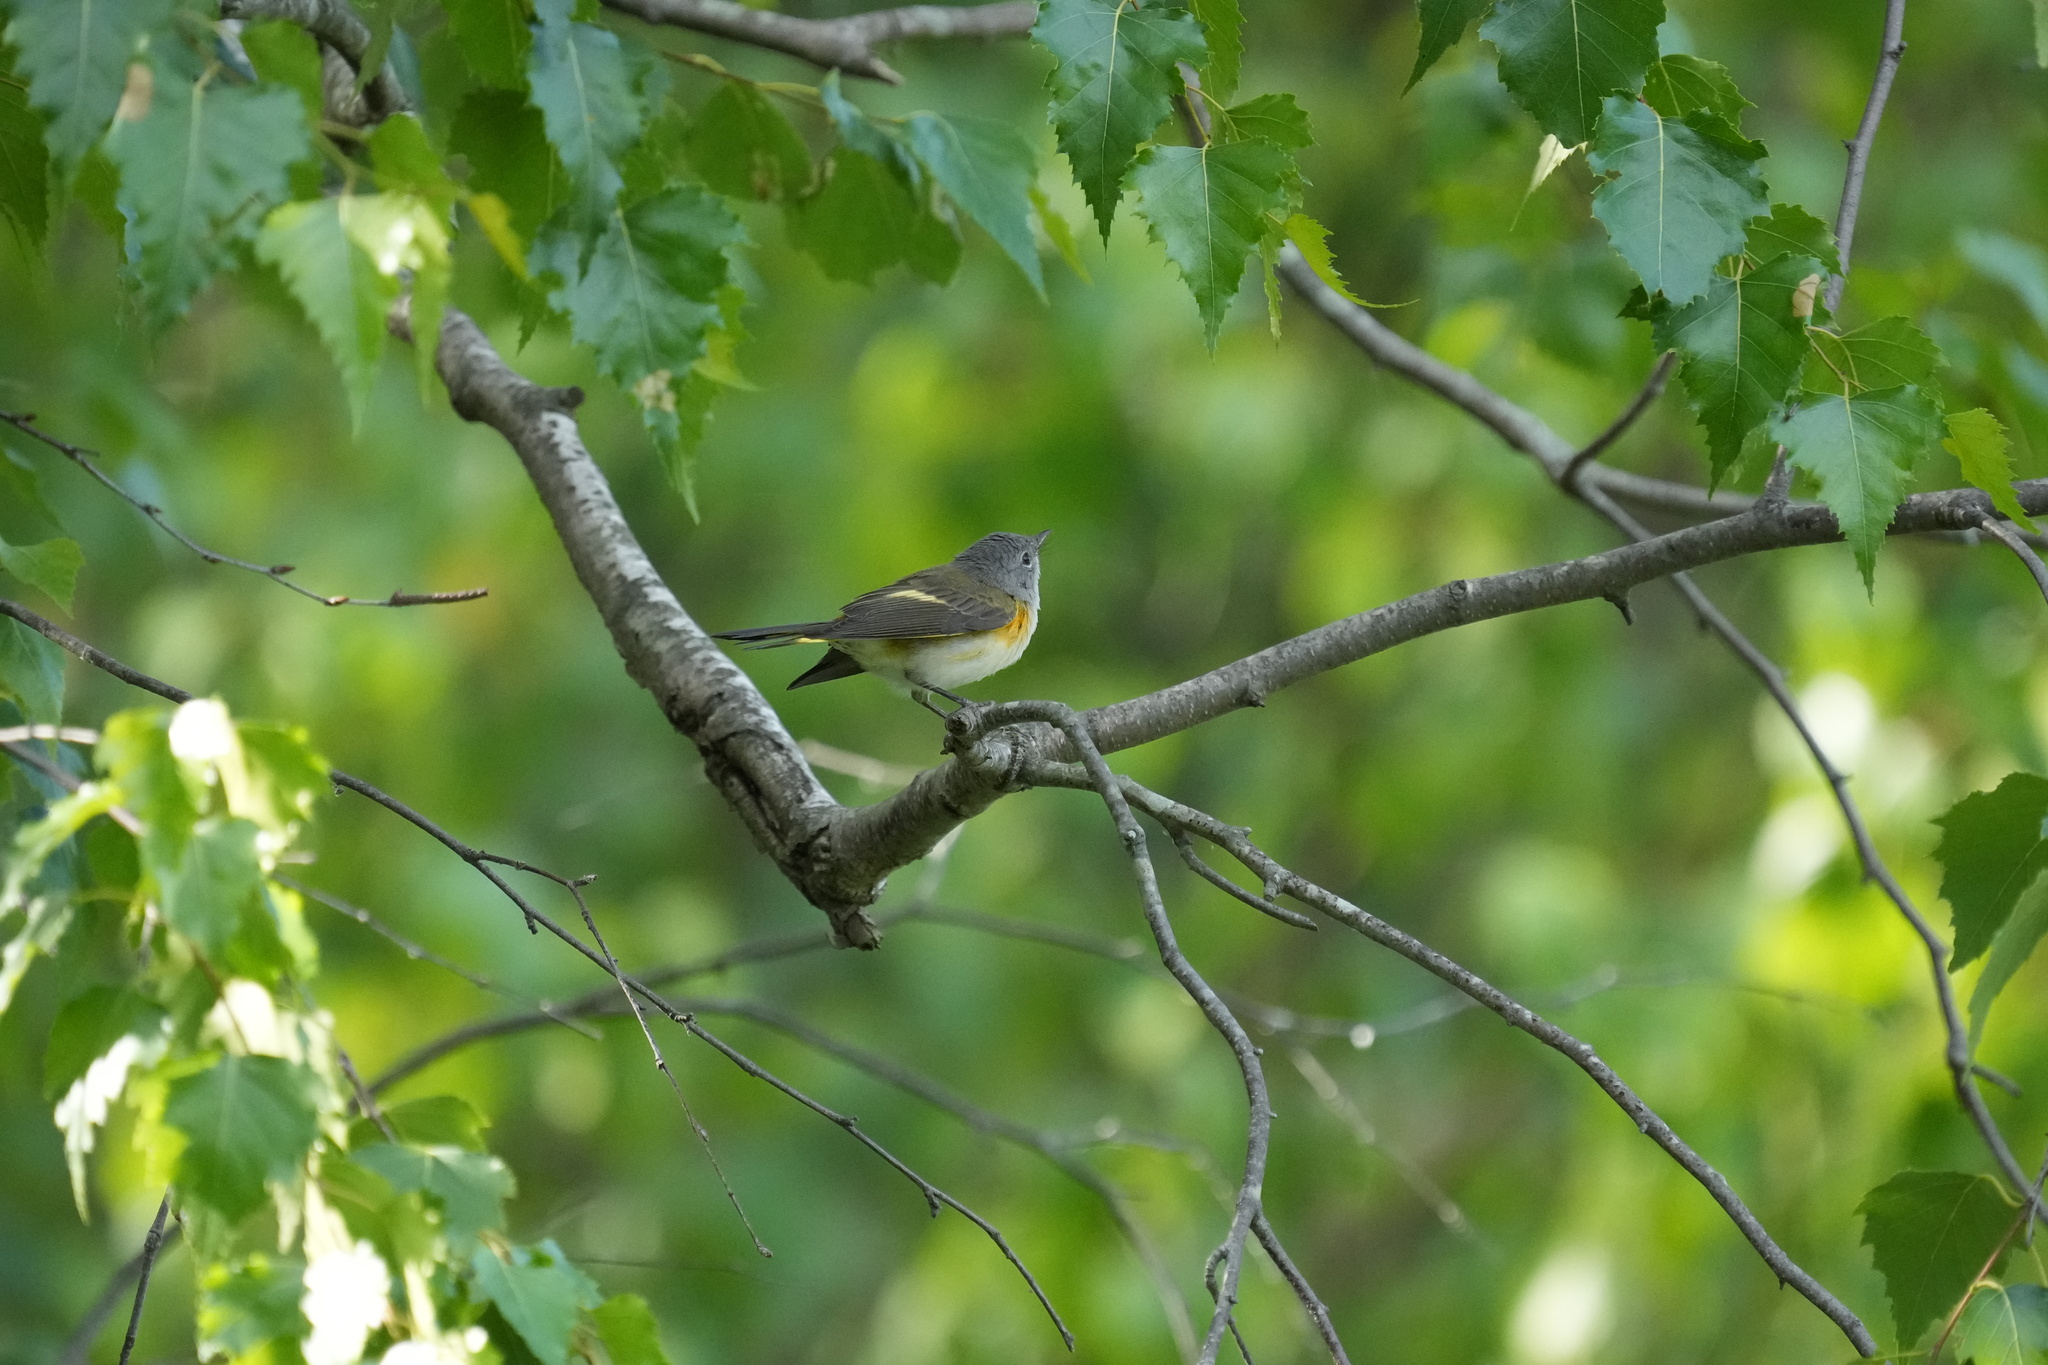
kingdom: Animalia
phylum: Chordata
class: Aves
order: Passeriformes
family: Parulidae
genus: Setophaga
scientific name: Setophaga ruticilla
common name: American redstart
